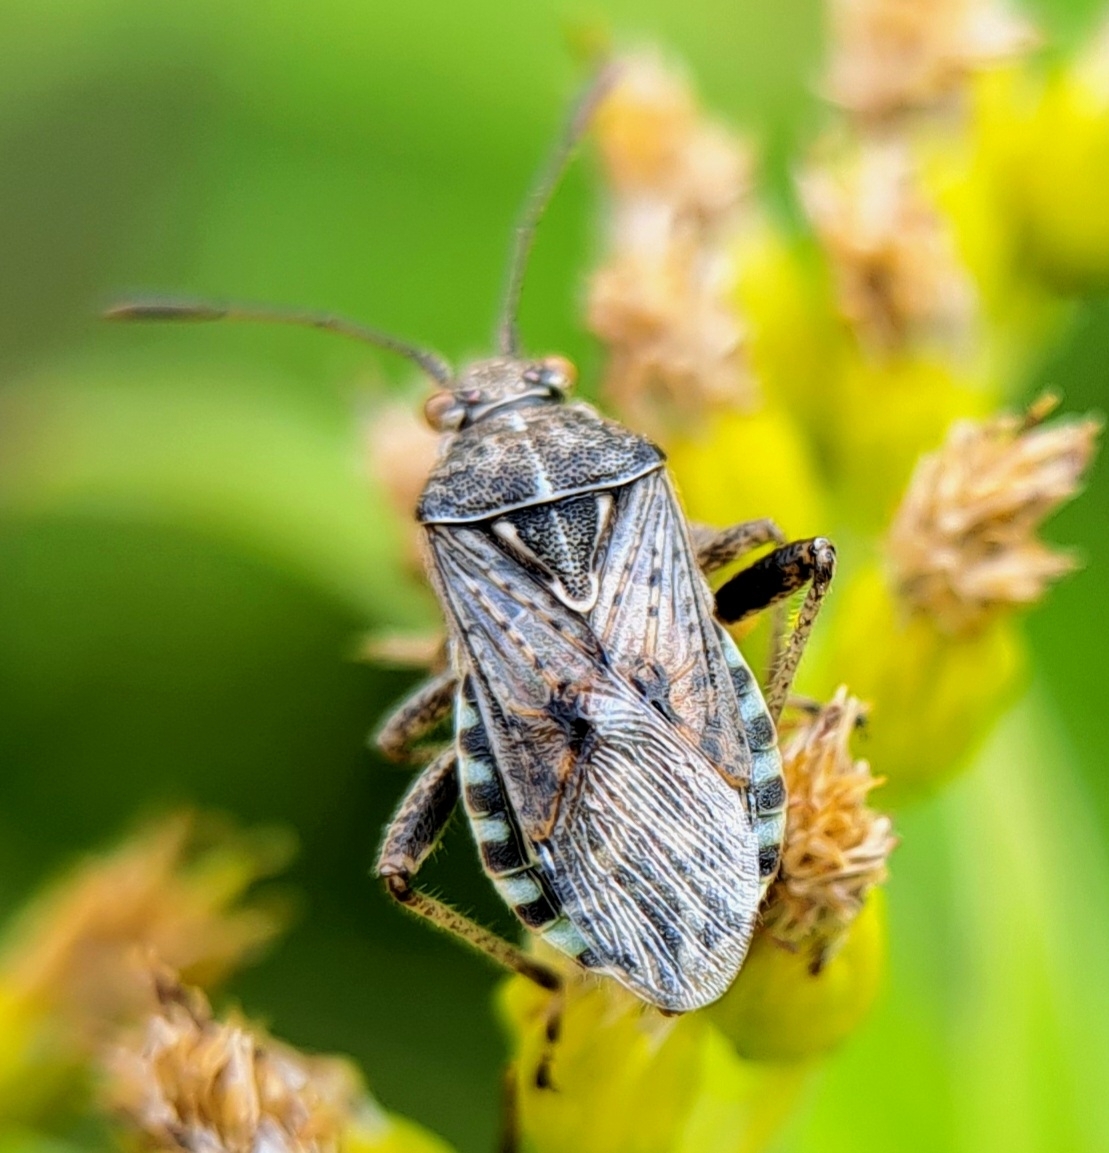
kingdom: Animalia
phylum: Arthropoda
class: Insecta
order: Hemiptera
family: Rhopalidae
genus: Stictopleurus
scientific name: Stictopleurus punctatonervosus
